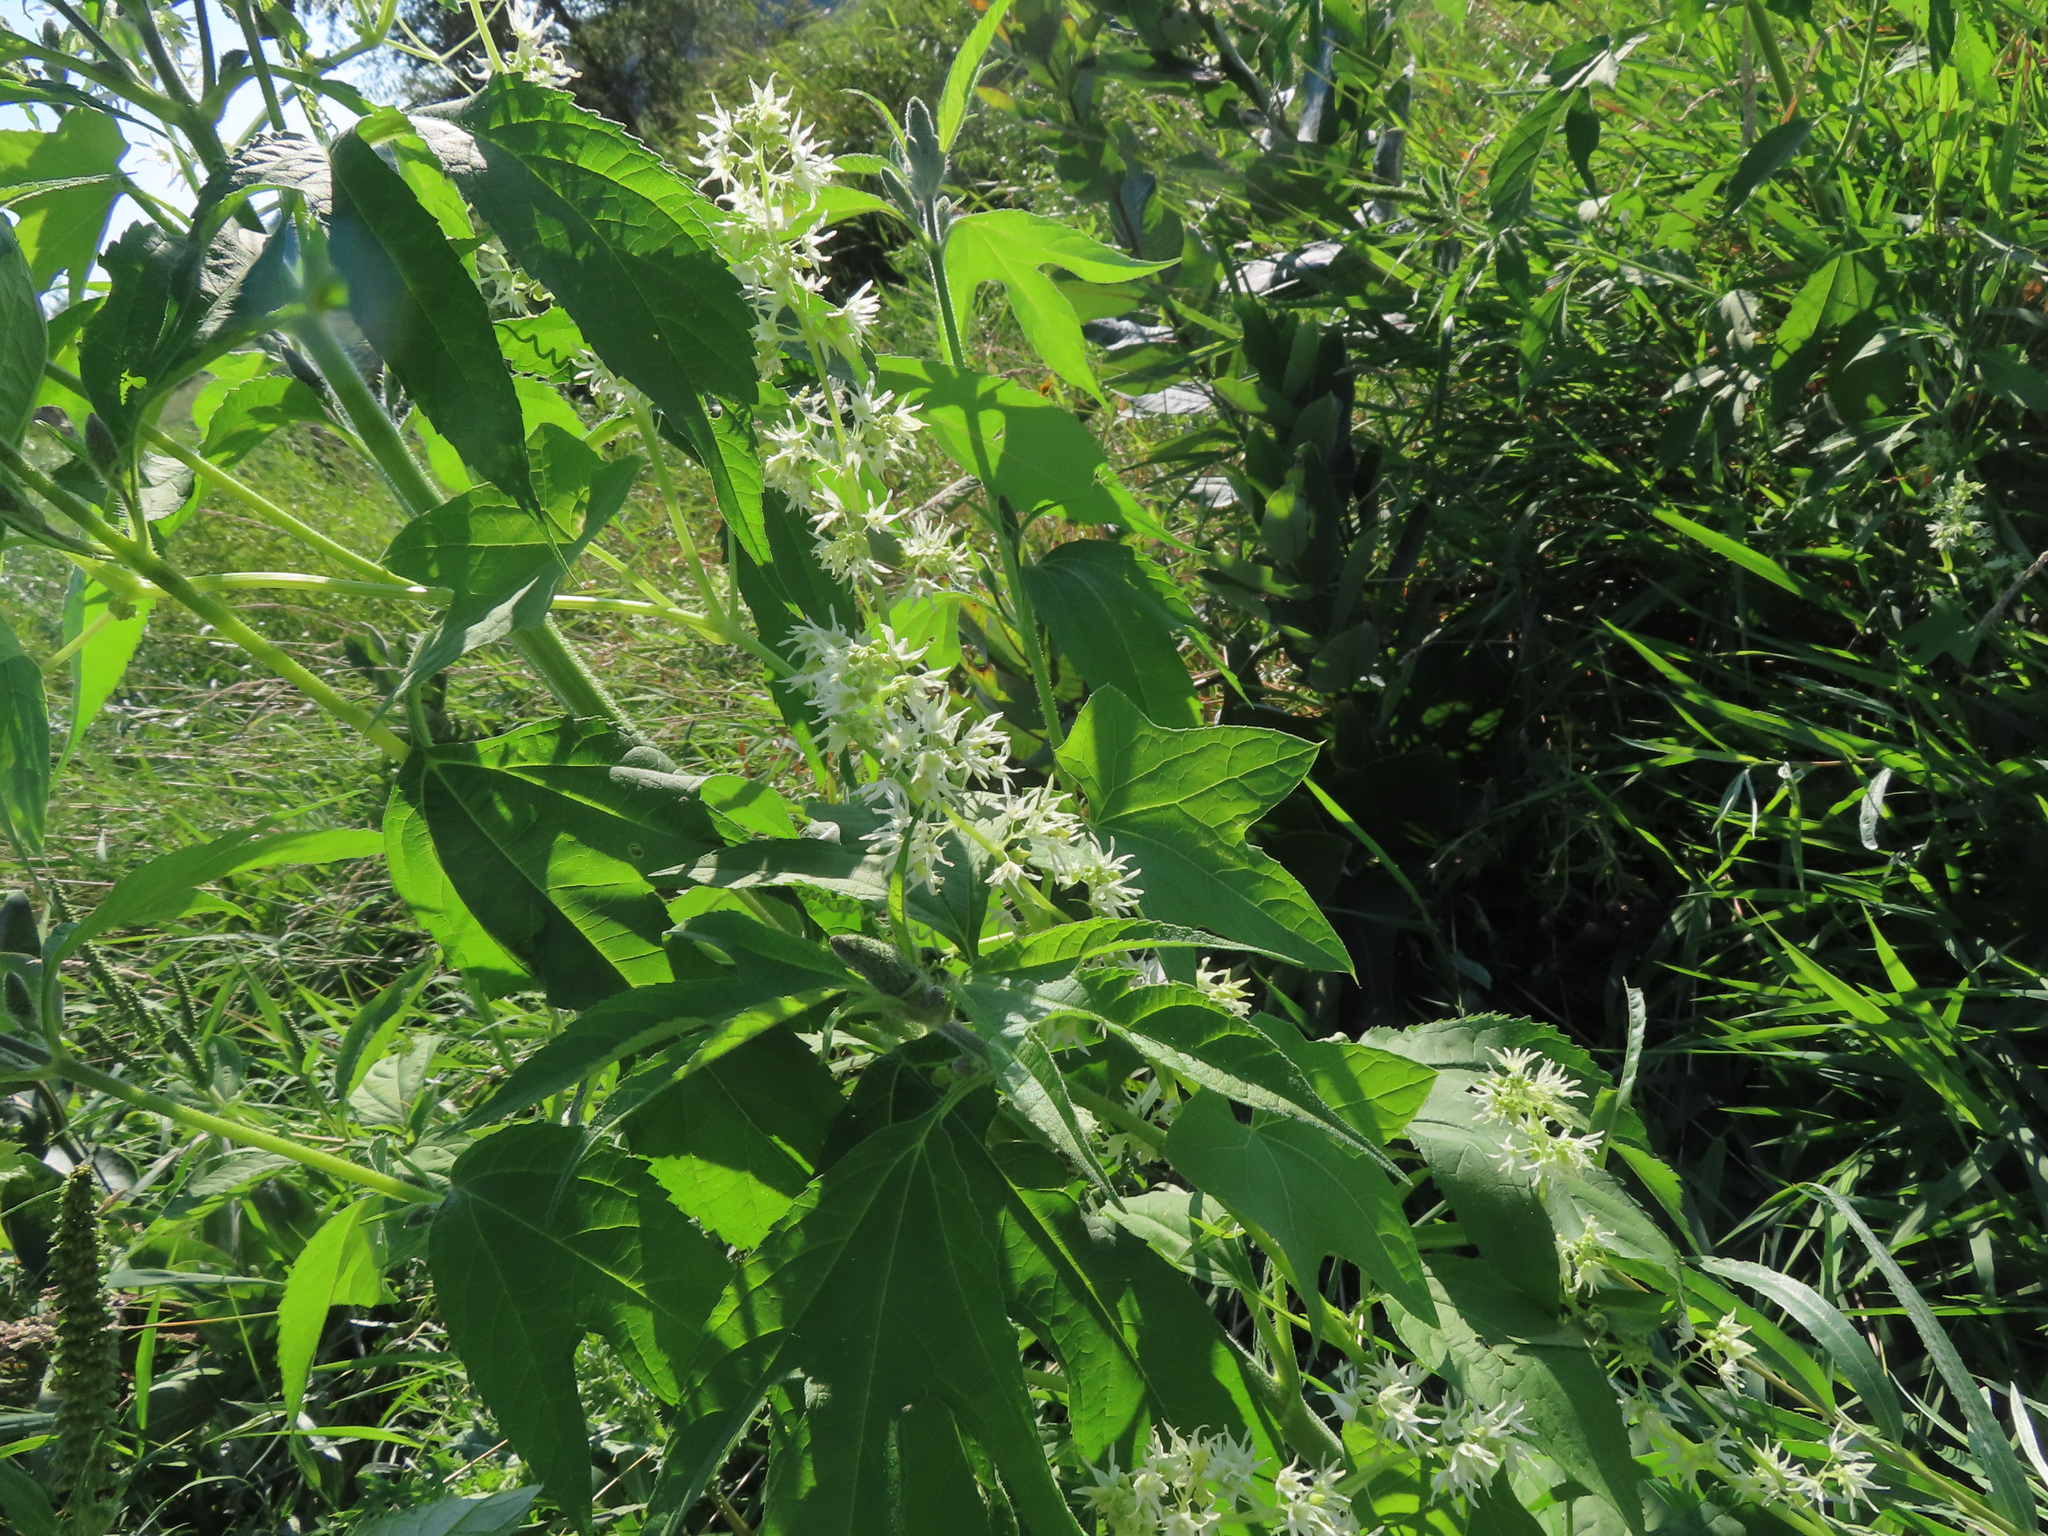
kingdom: Plantae
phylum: Tracheophyta
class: Magnoliopsida
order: Cucurbitales
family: Cucurbitaceae
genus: Echinocystis
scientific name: Echinocystis lobata
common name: Wild cucumber
